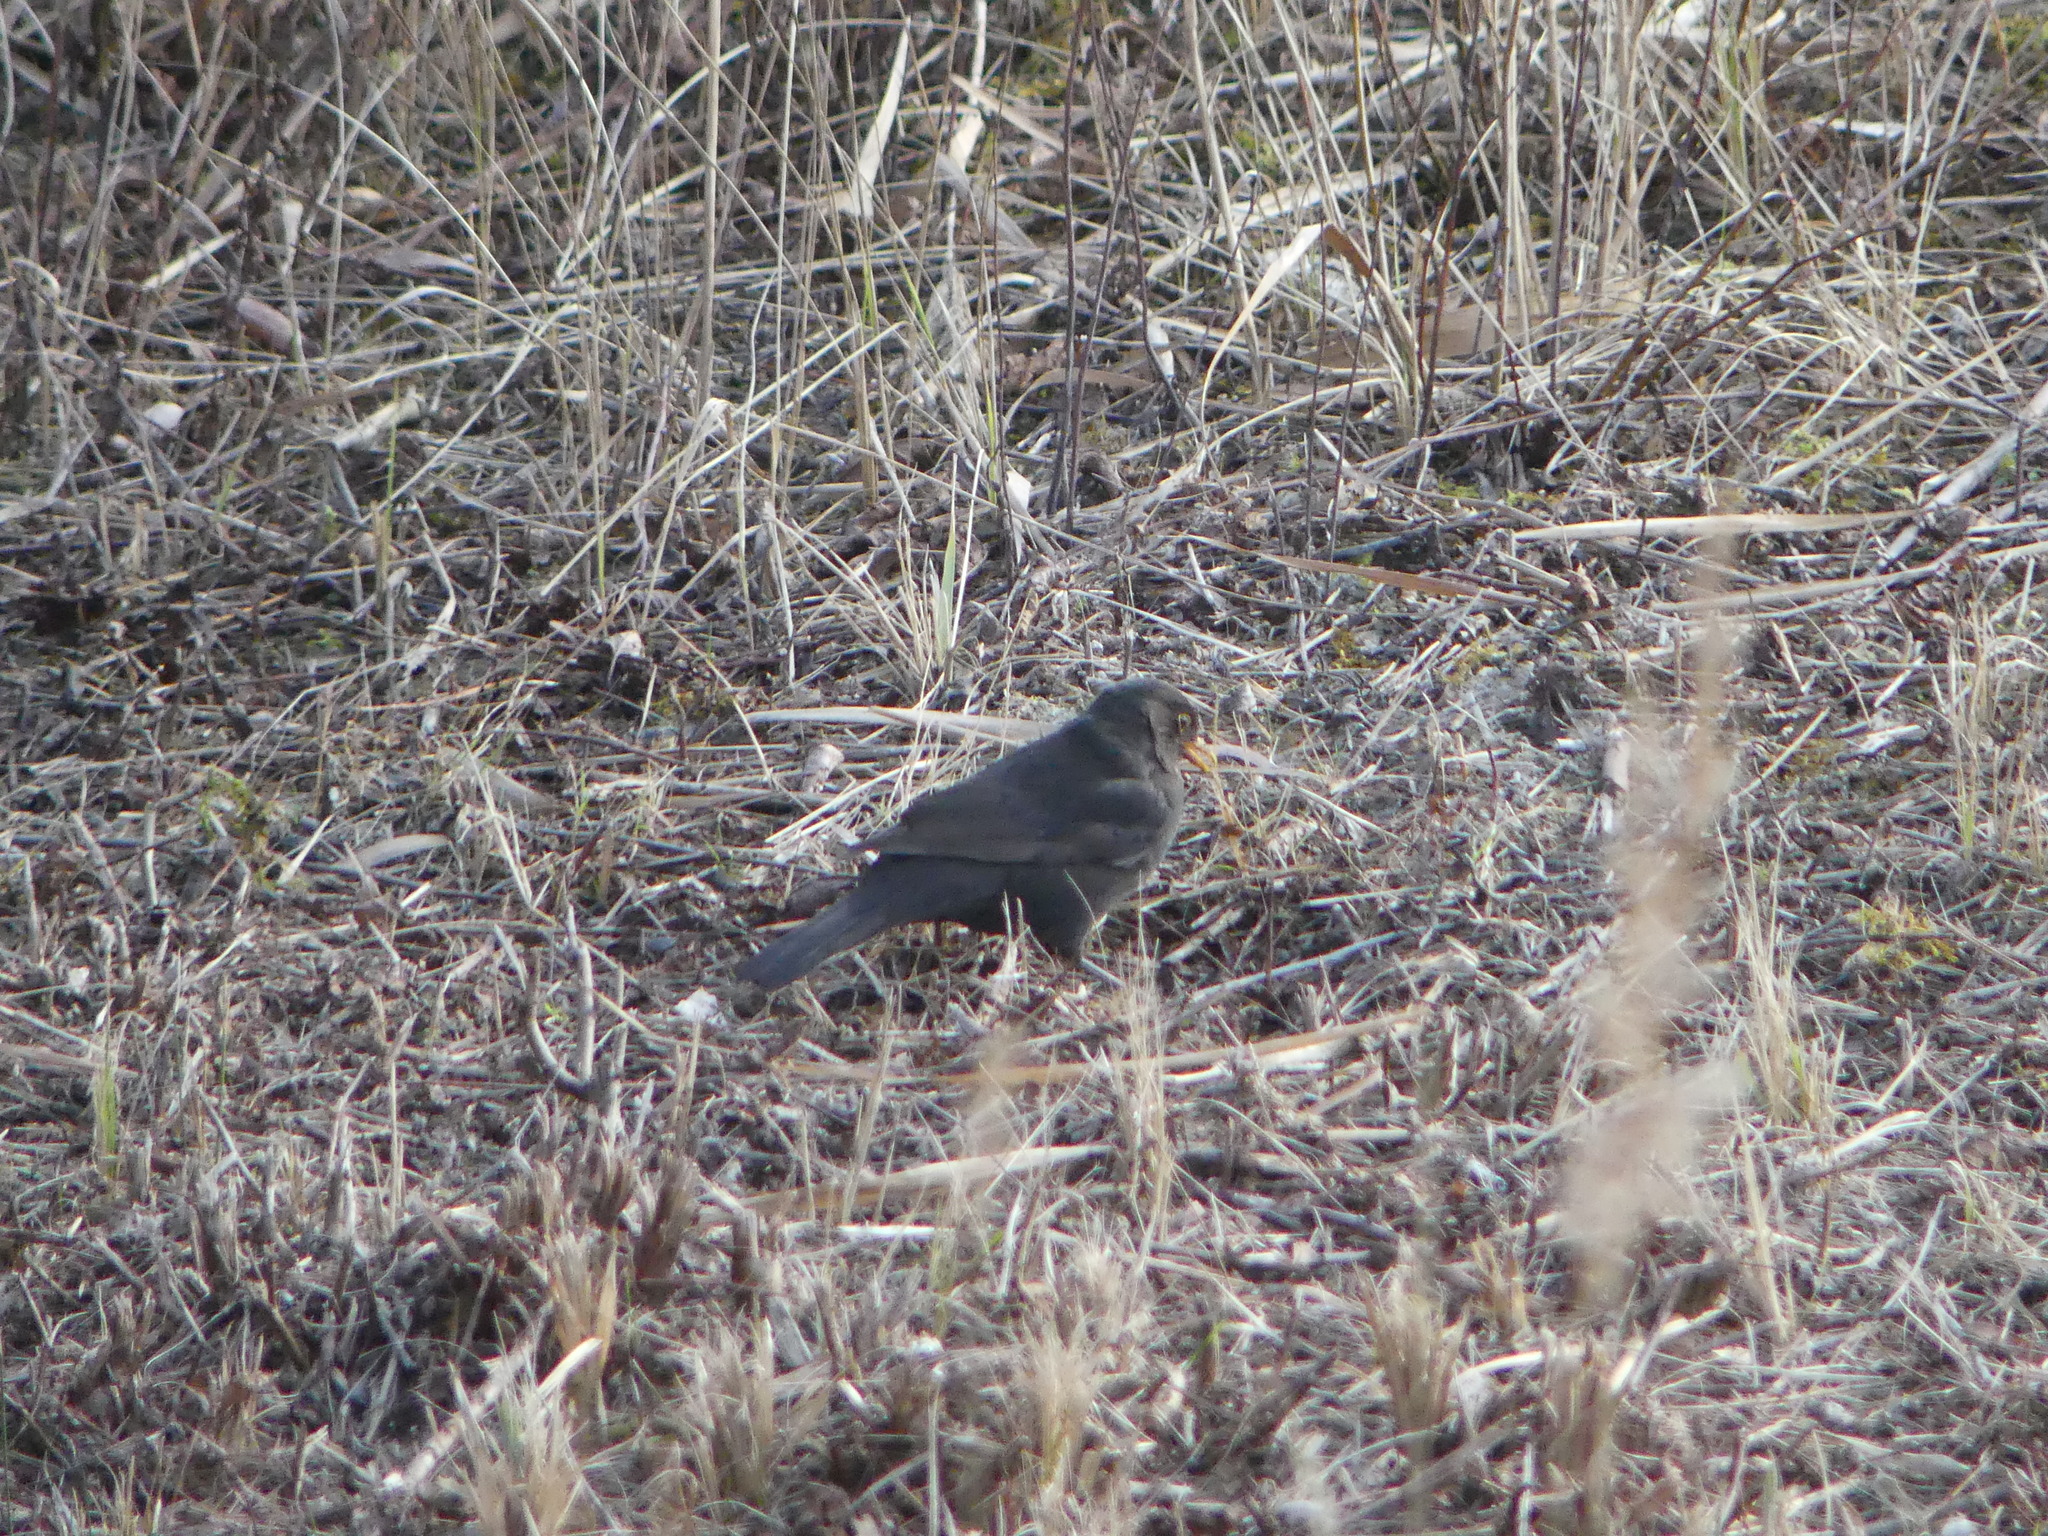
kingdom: Animalia
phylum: Chordata
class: Aves
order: Passeriformes
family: Turdidae
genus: Turdus
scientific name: Turdus merula
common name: Common blackbird
